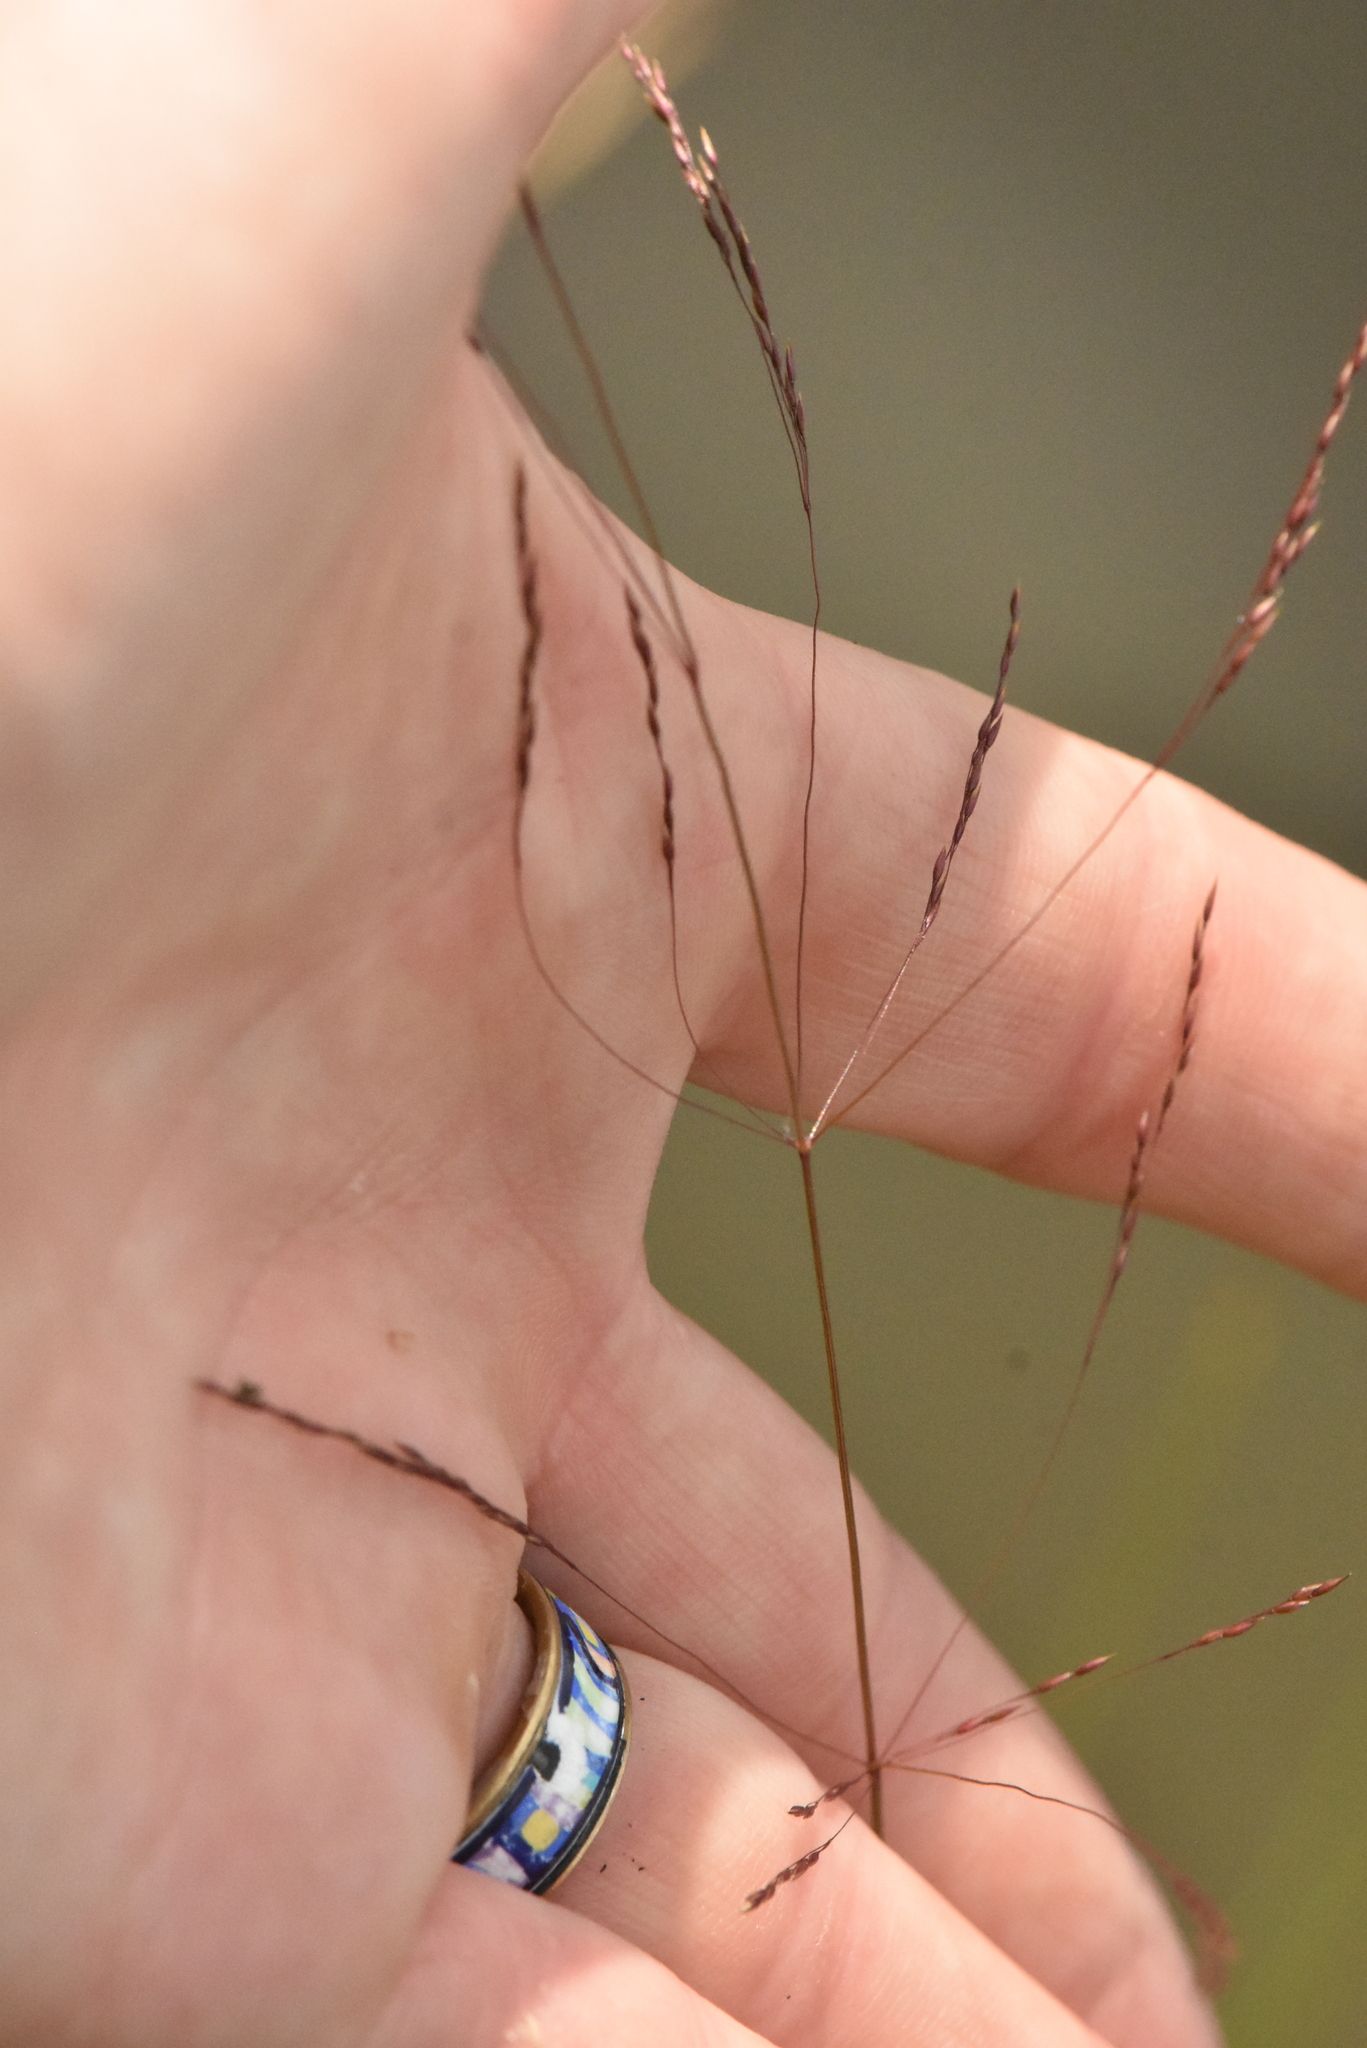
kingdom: Plantae
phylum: Tracheophyta
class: Liliopsida
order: Poales
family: Poaceae
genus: Deschampsia
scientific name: Deschampsia cespitosa
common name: Tufted hair-grass
